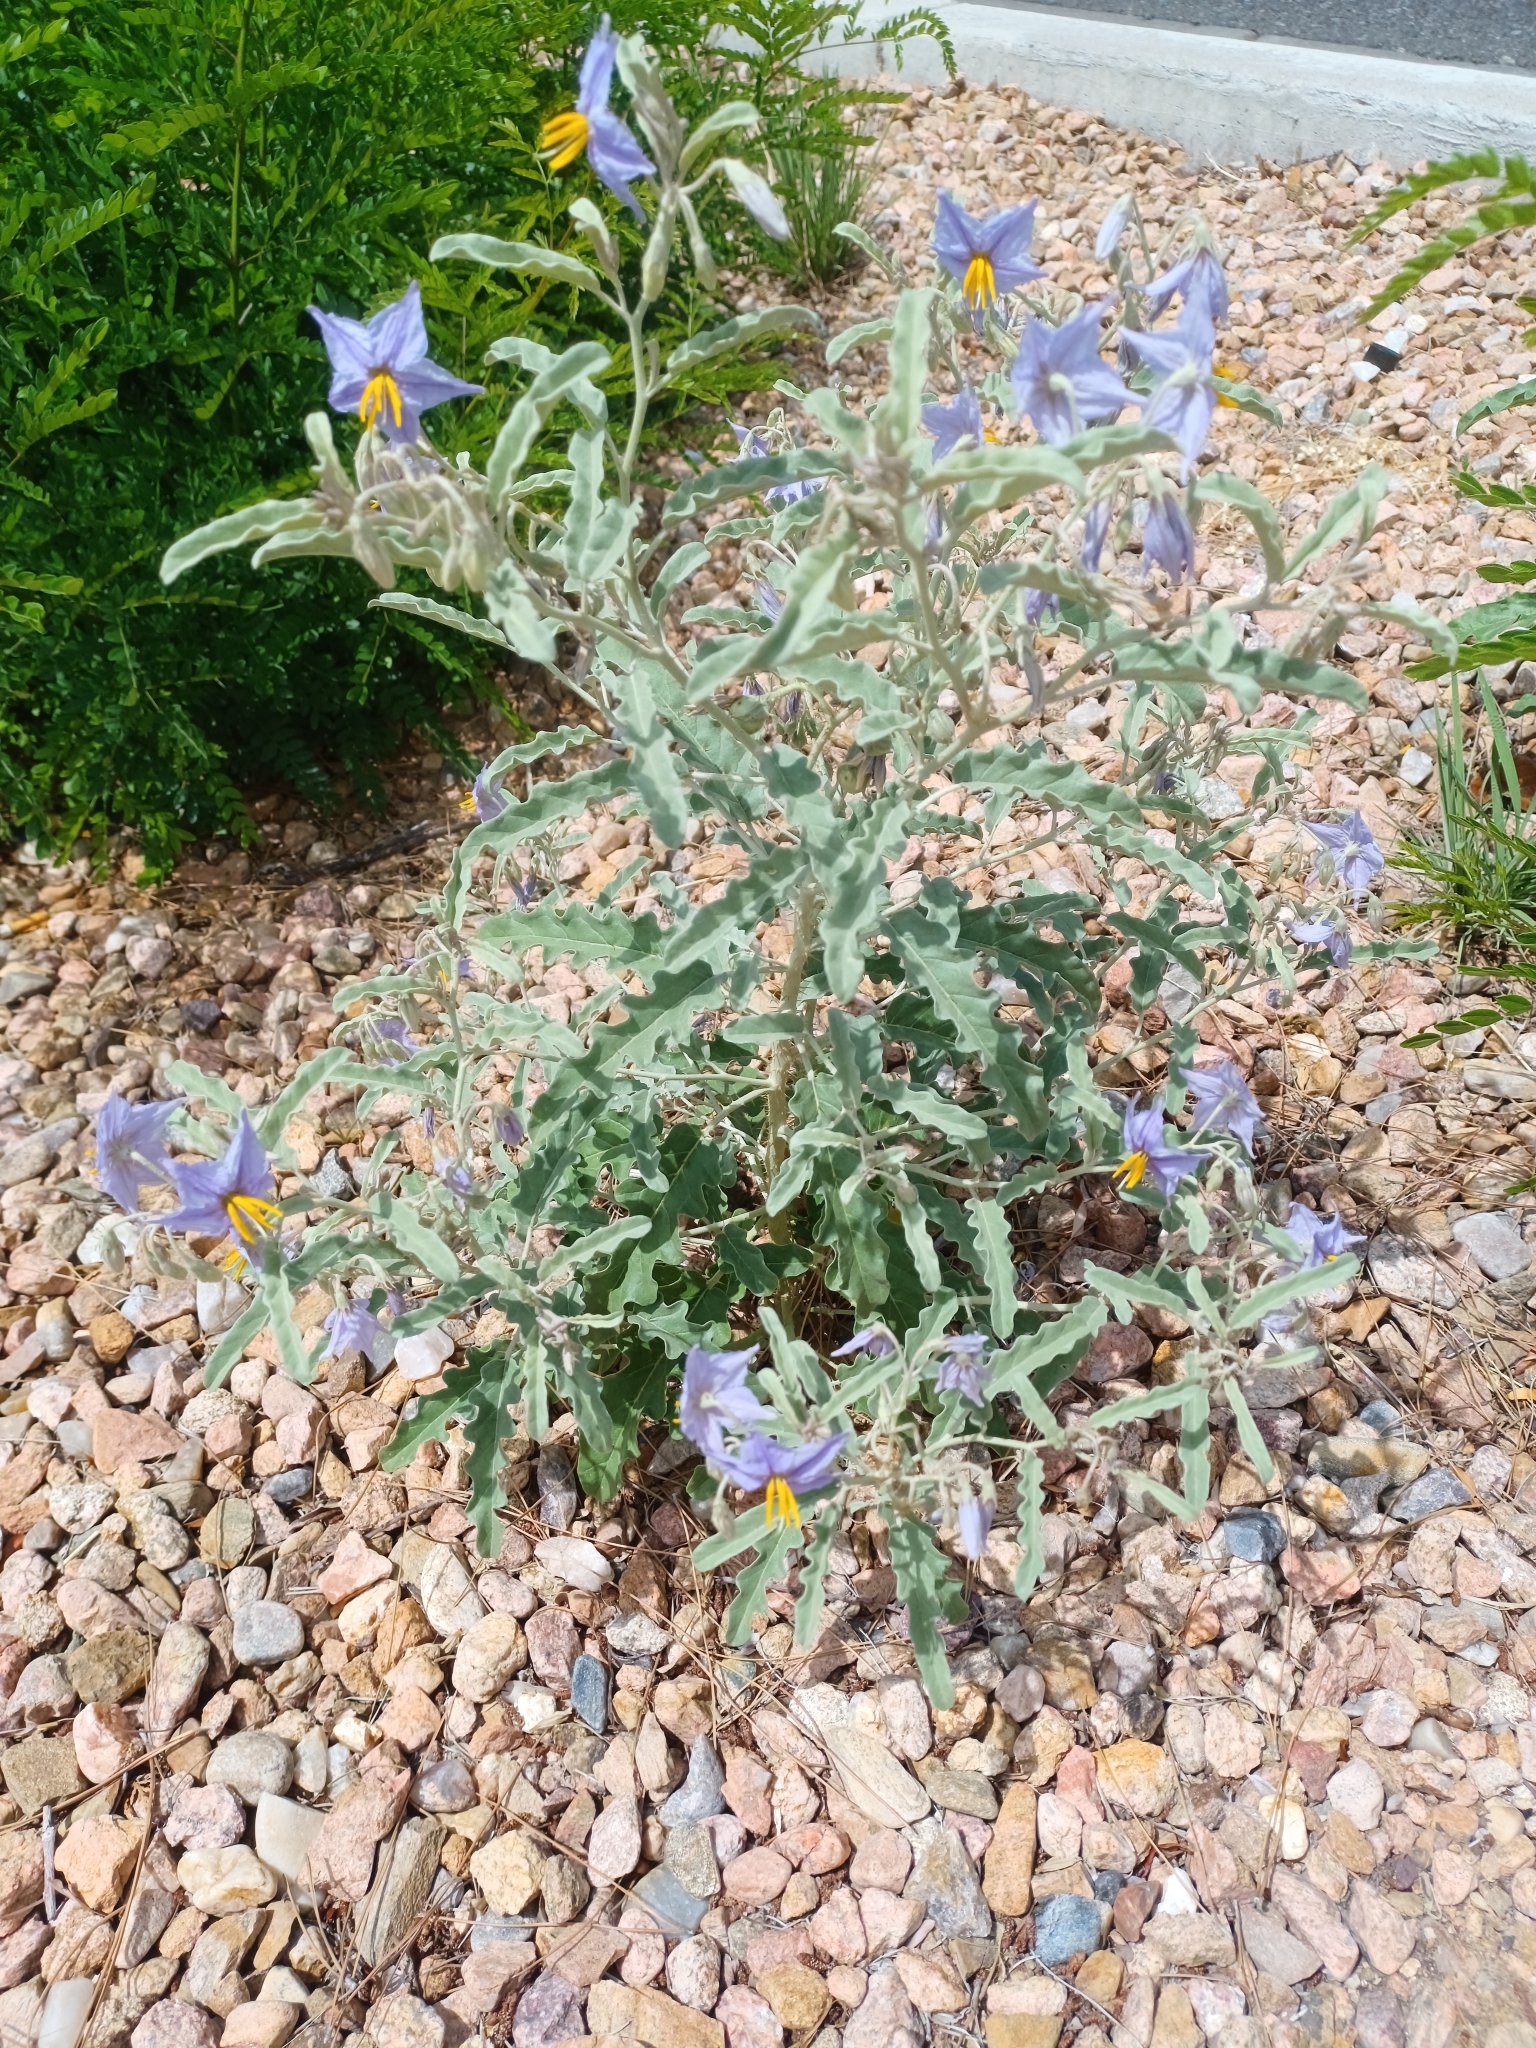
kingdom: Plantae
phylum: Tracheophyta
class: Magnoliopsida
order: Solanales
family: Solanaceae
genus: Solanum
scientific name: Solanum elaeagnifolium
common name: Silverleaf nightshade
